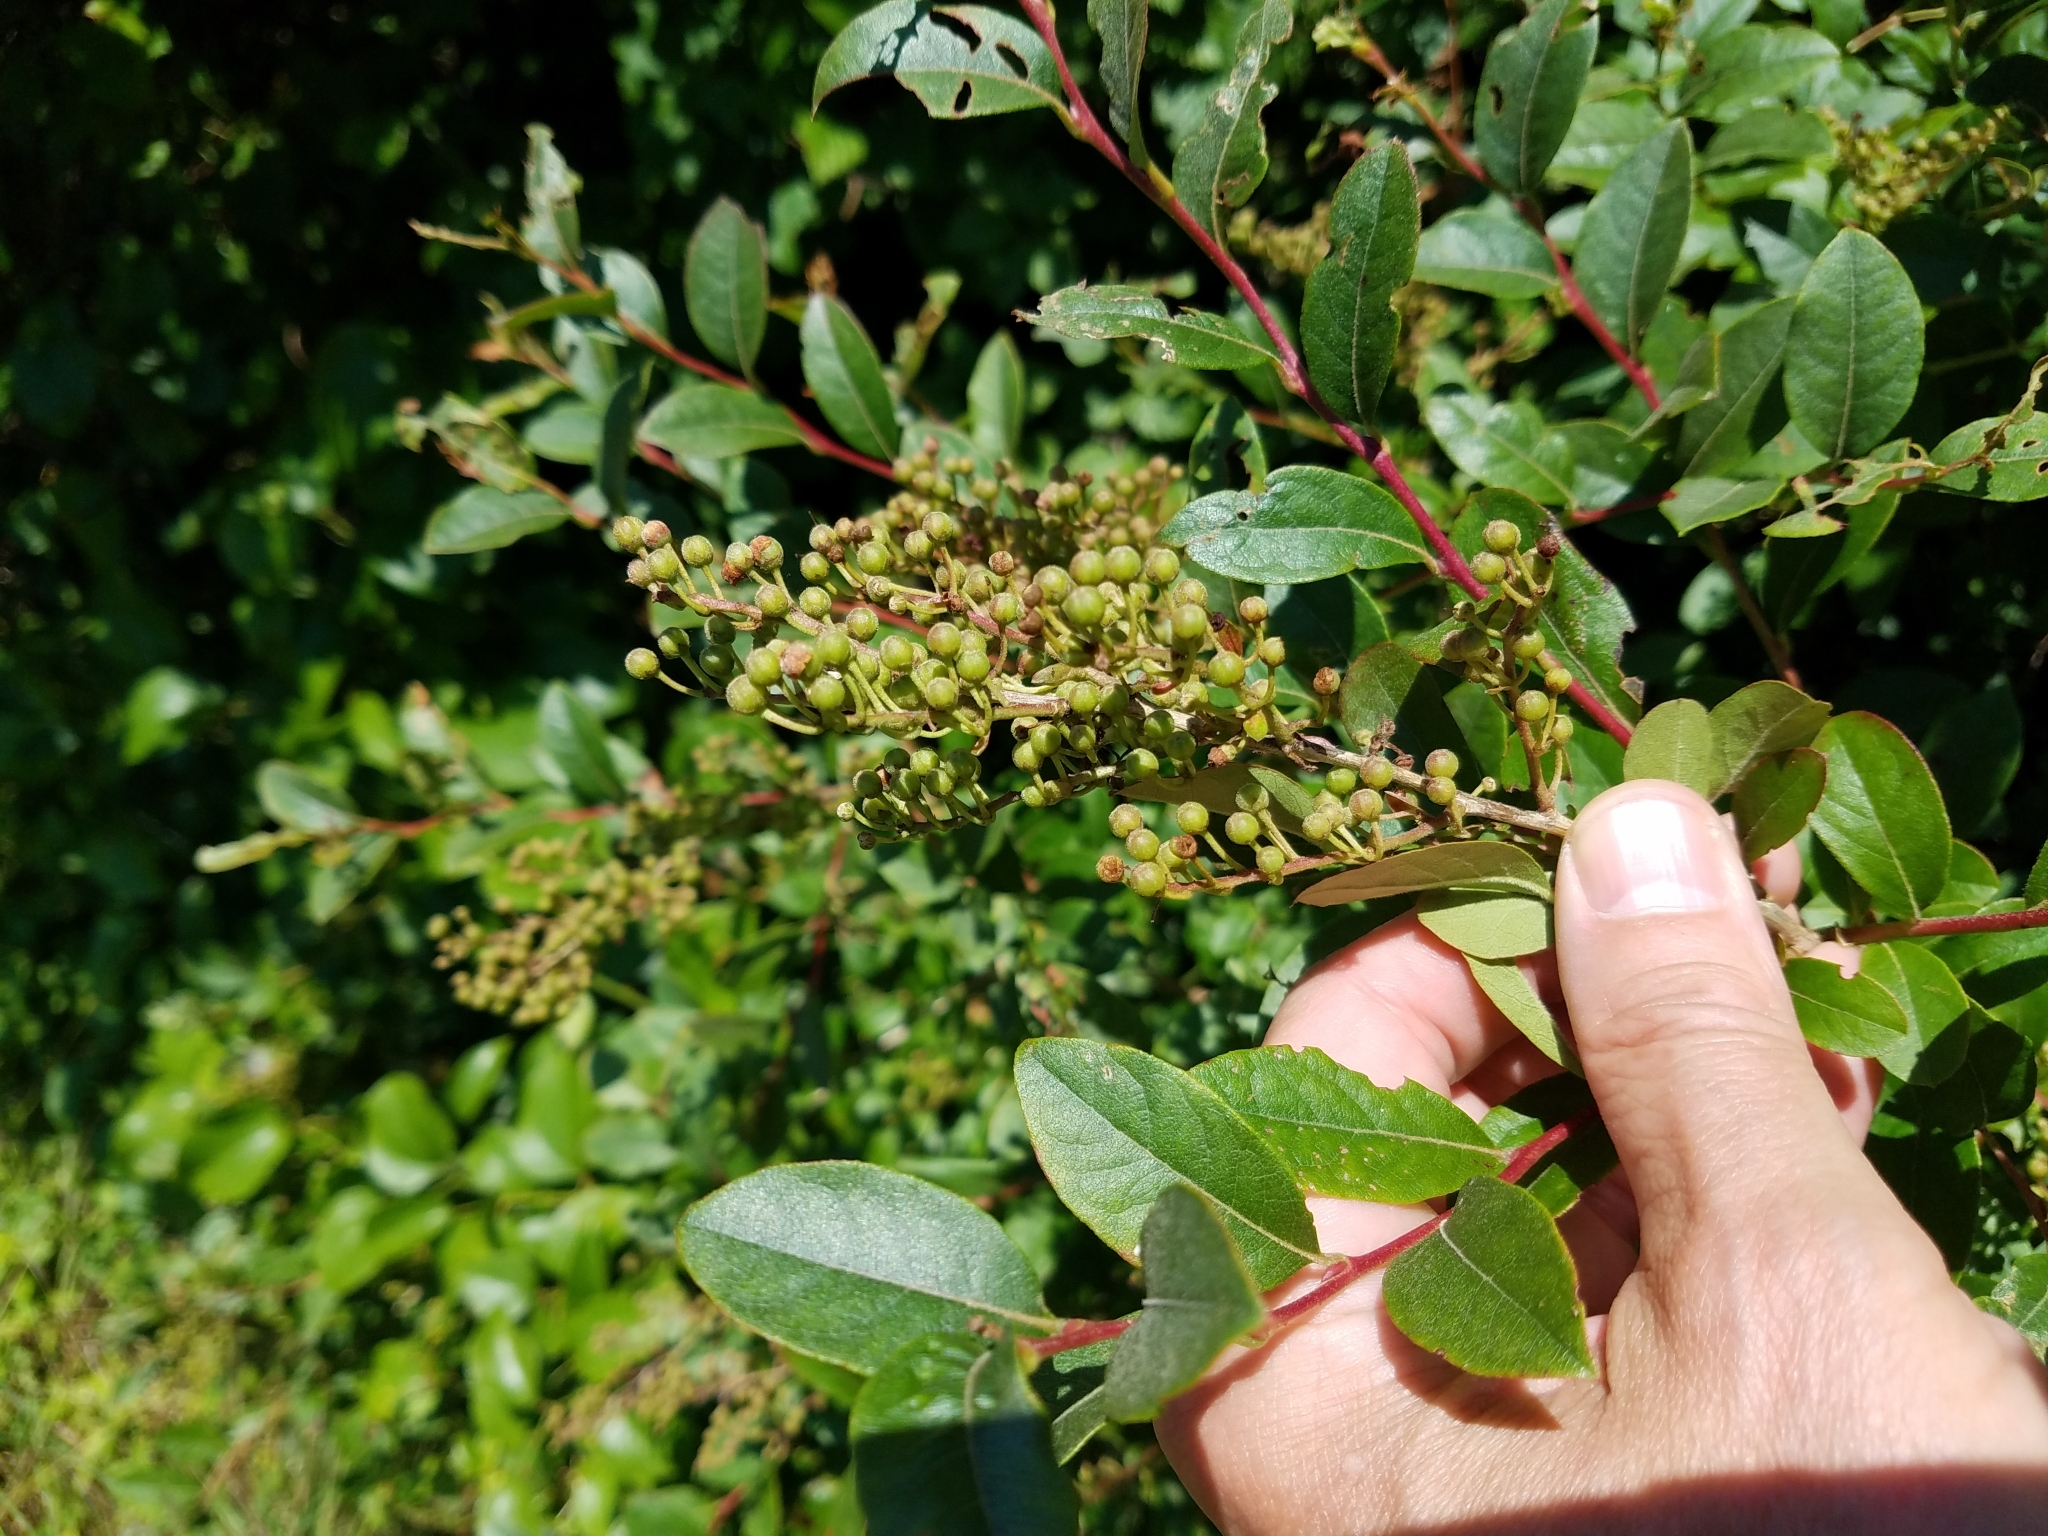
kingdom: Plantae
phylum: Tracheophyta
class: Magnoliopsida
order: Ericales
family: Ericaceae
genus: Lyonia
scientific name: Lyonia ligustrina
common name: Maleberry
